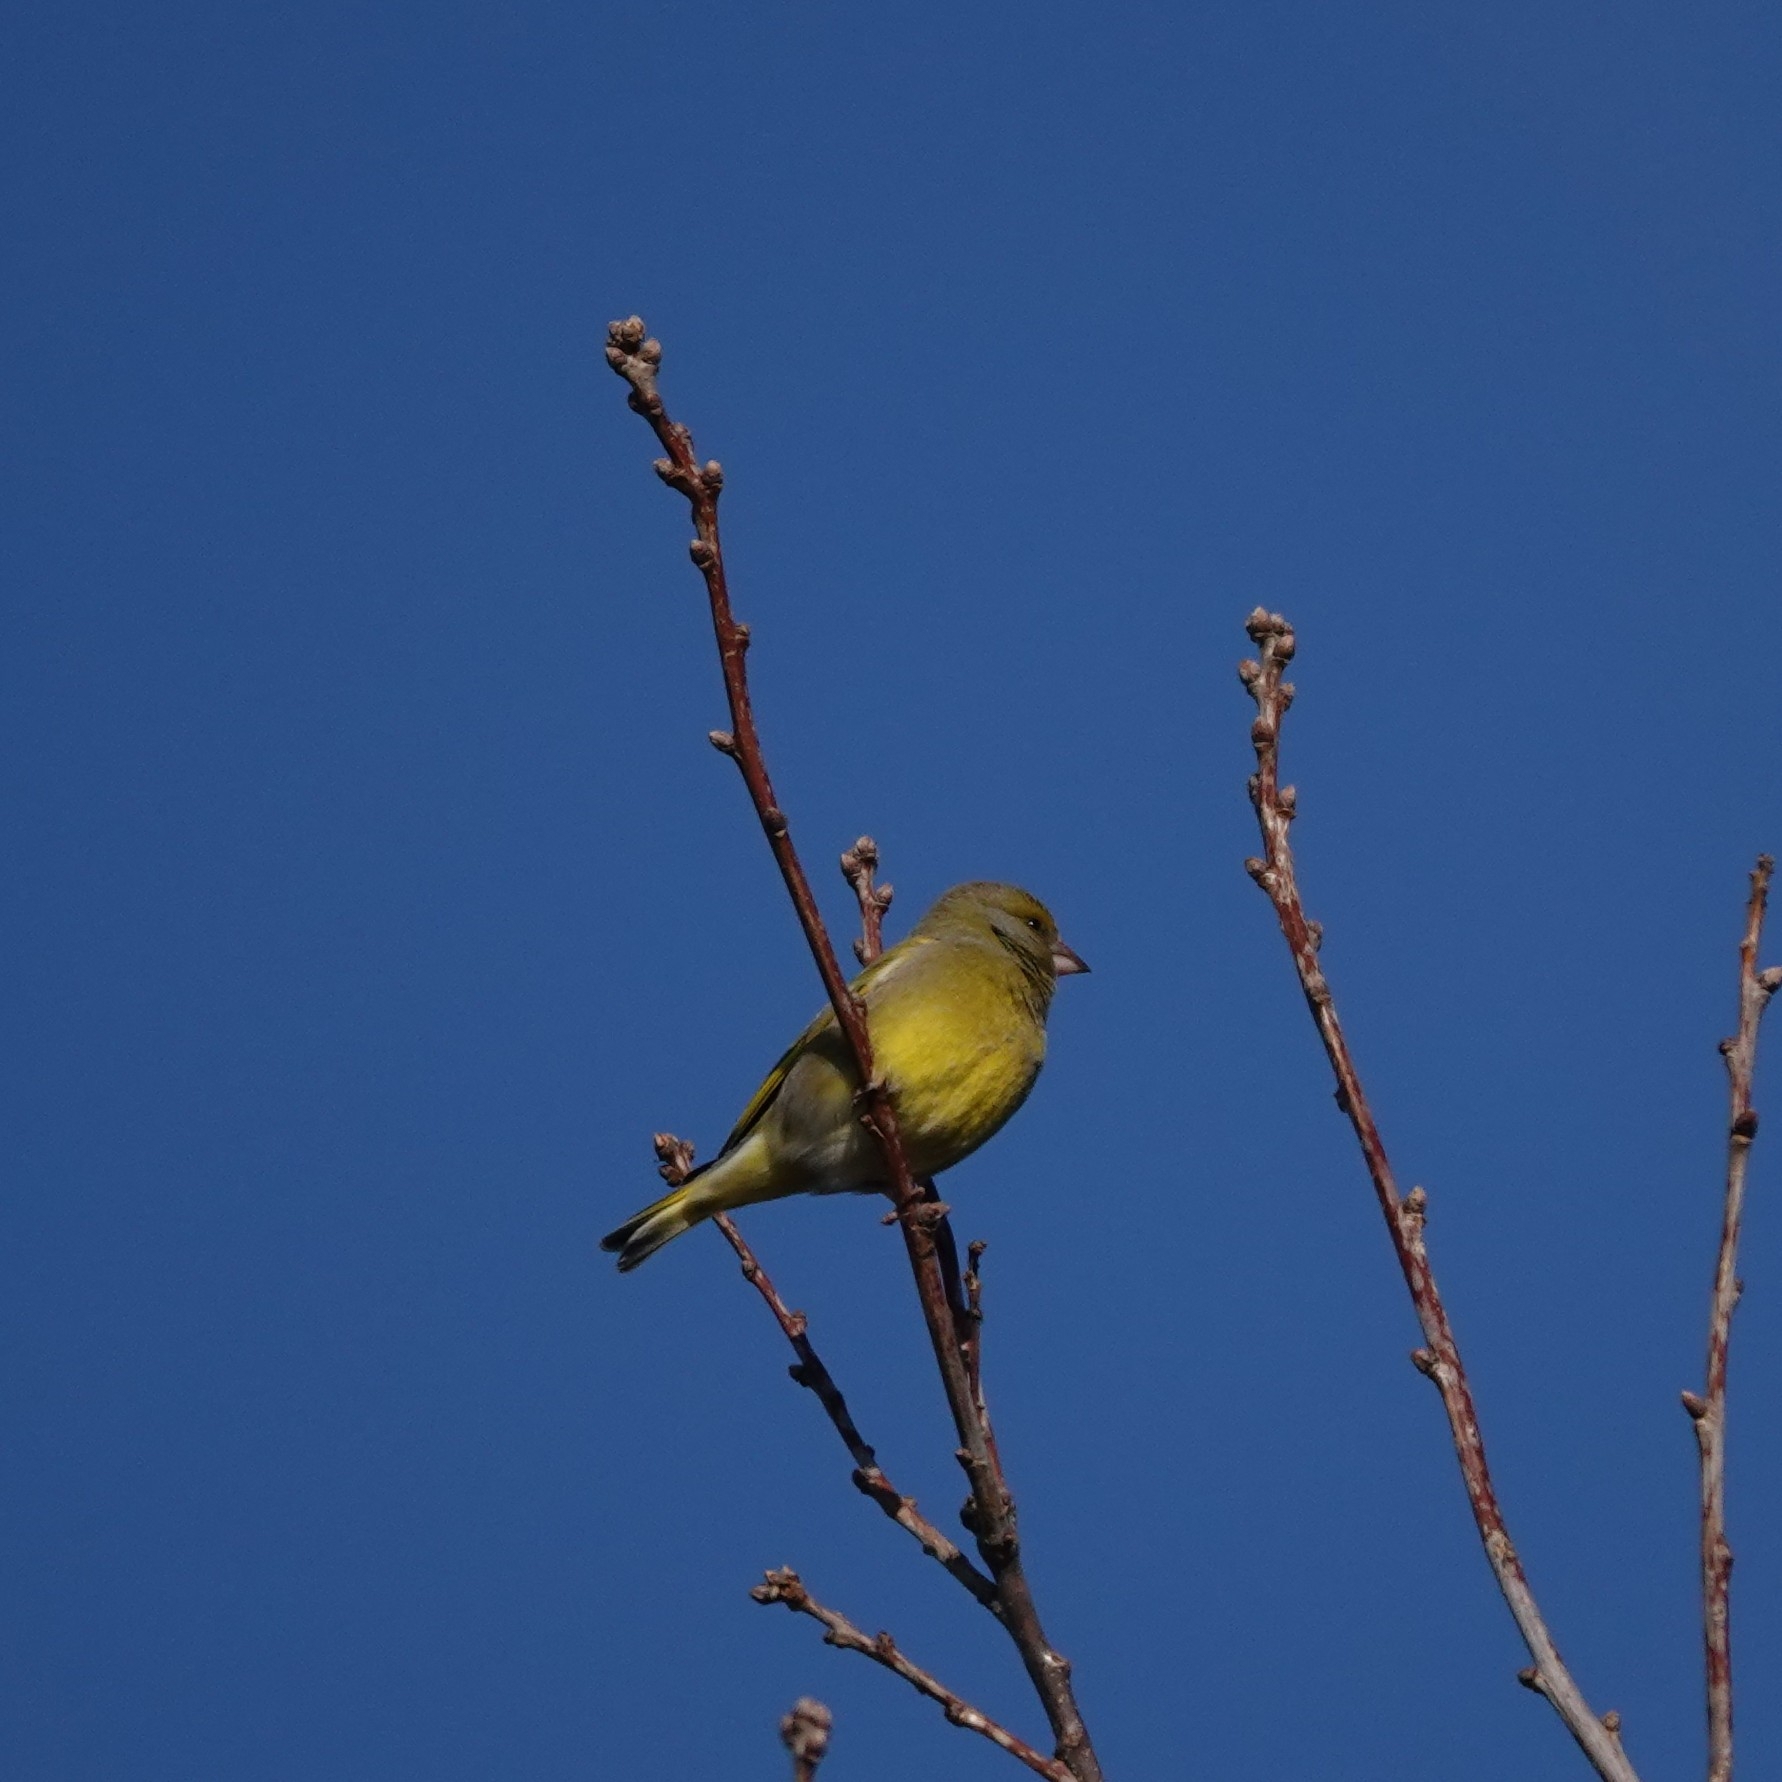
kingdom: Plantae
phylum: Tracheophyta
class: Liliopsida
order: Poales
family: Poaceae
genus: Chloris
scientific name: Chloris chloris
